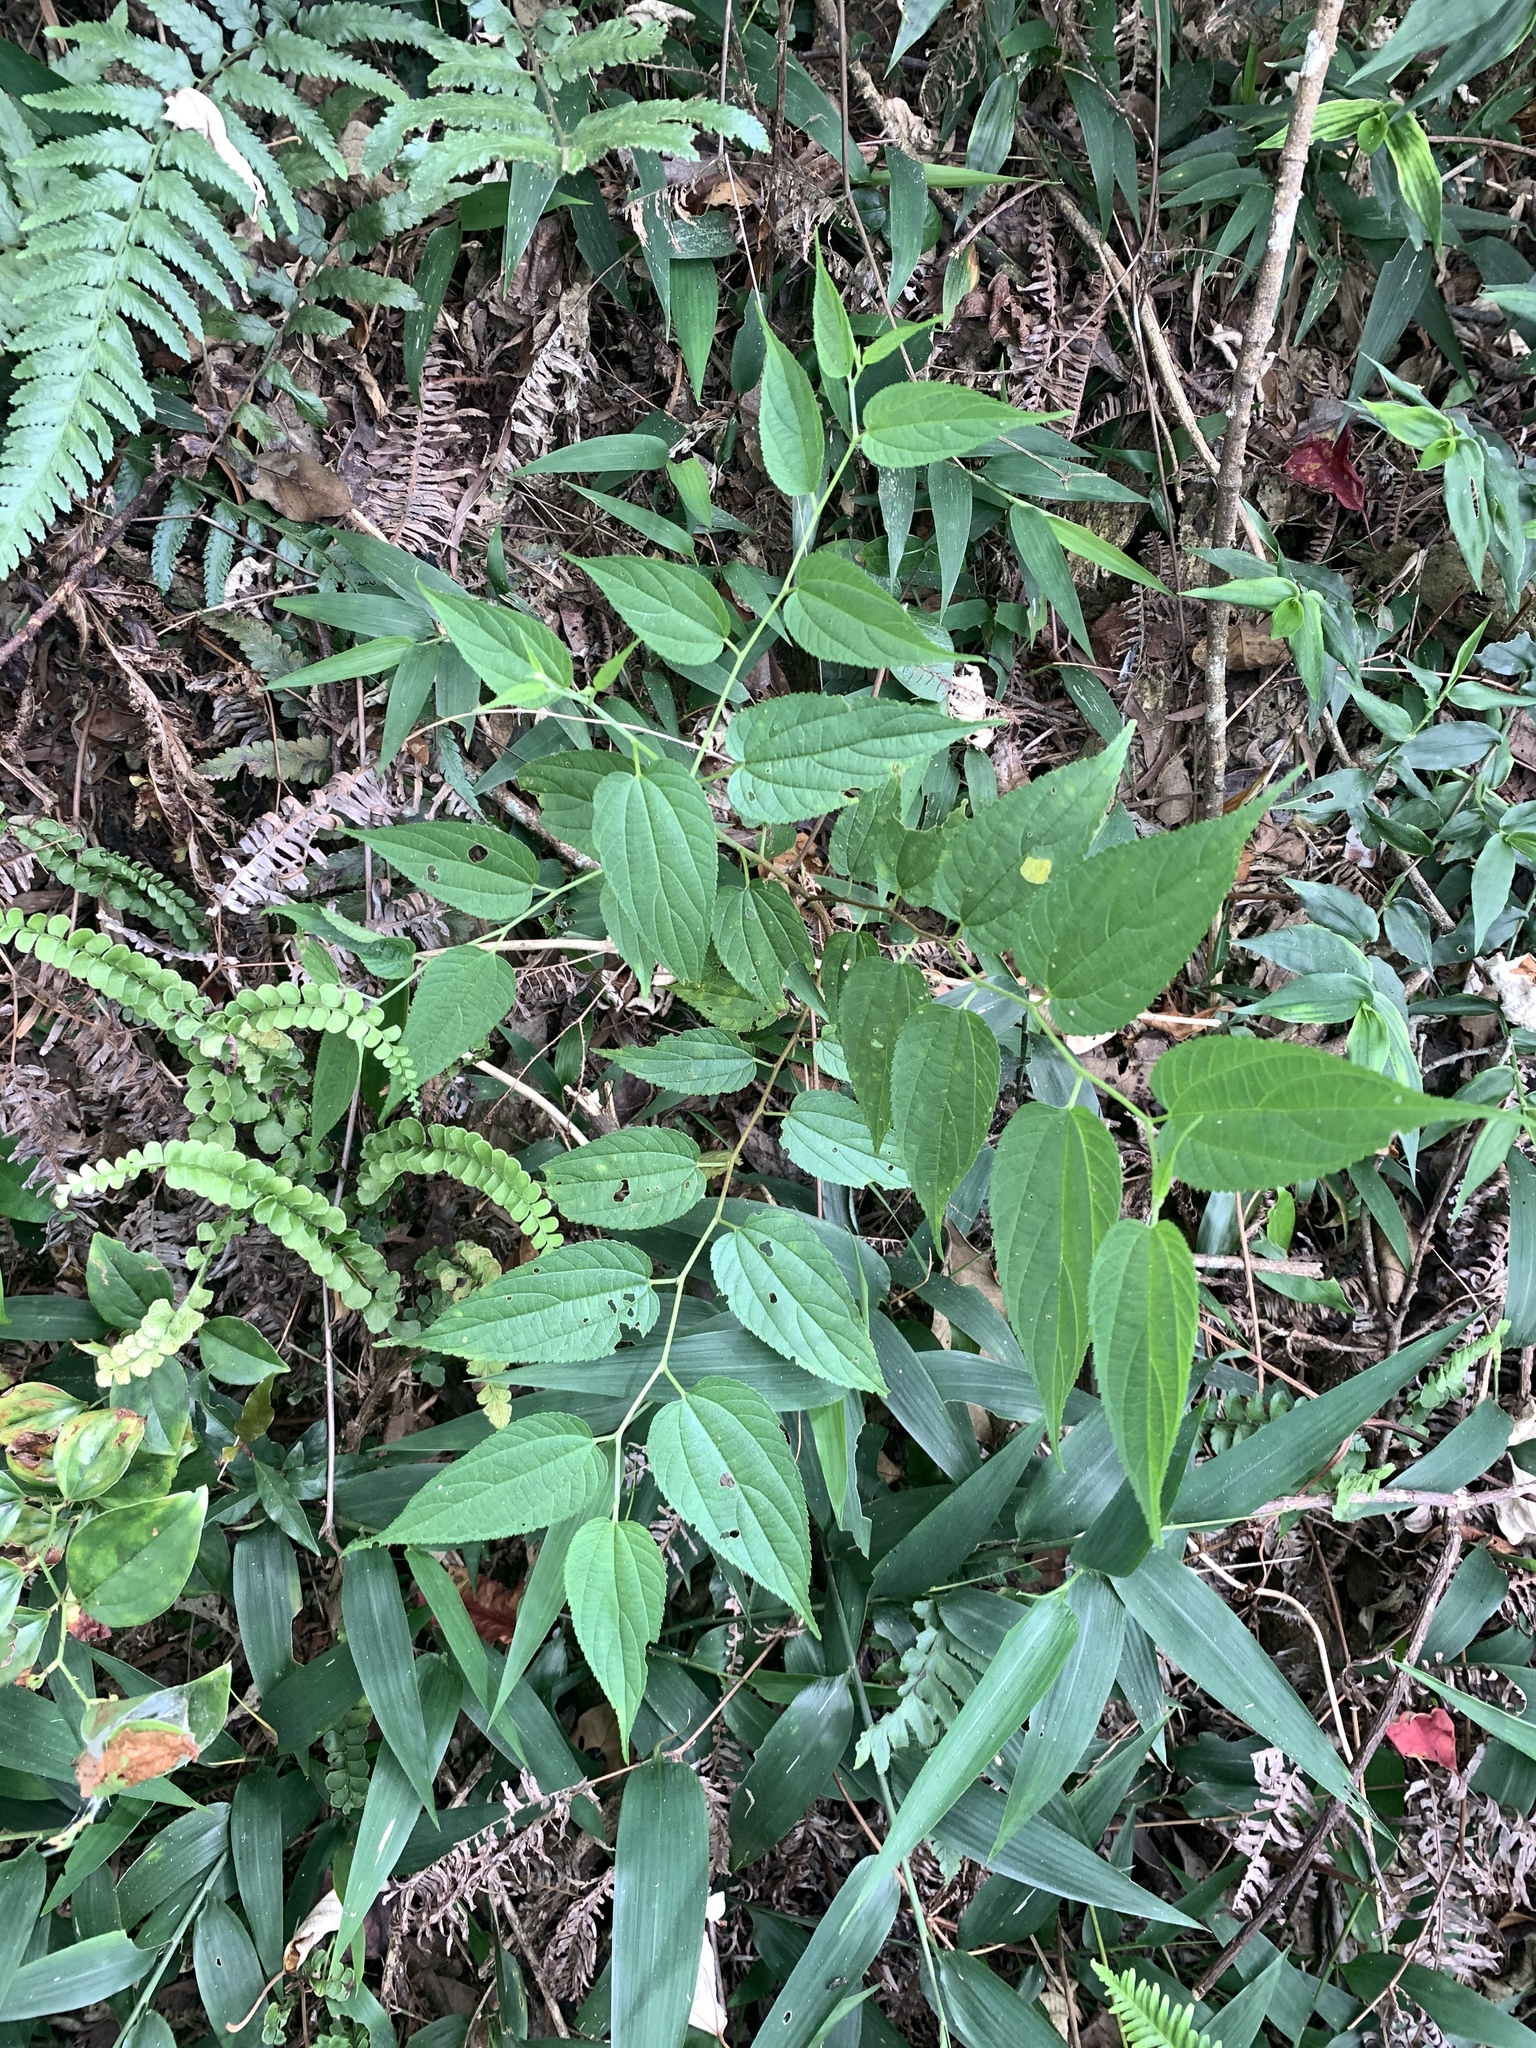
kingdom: Plantae
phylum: Tracheophyta
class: Magnoliopsida
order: Rosales
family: Cannabaceae
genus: Trema
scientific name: Trema cannabina
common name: Poison-peach
